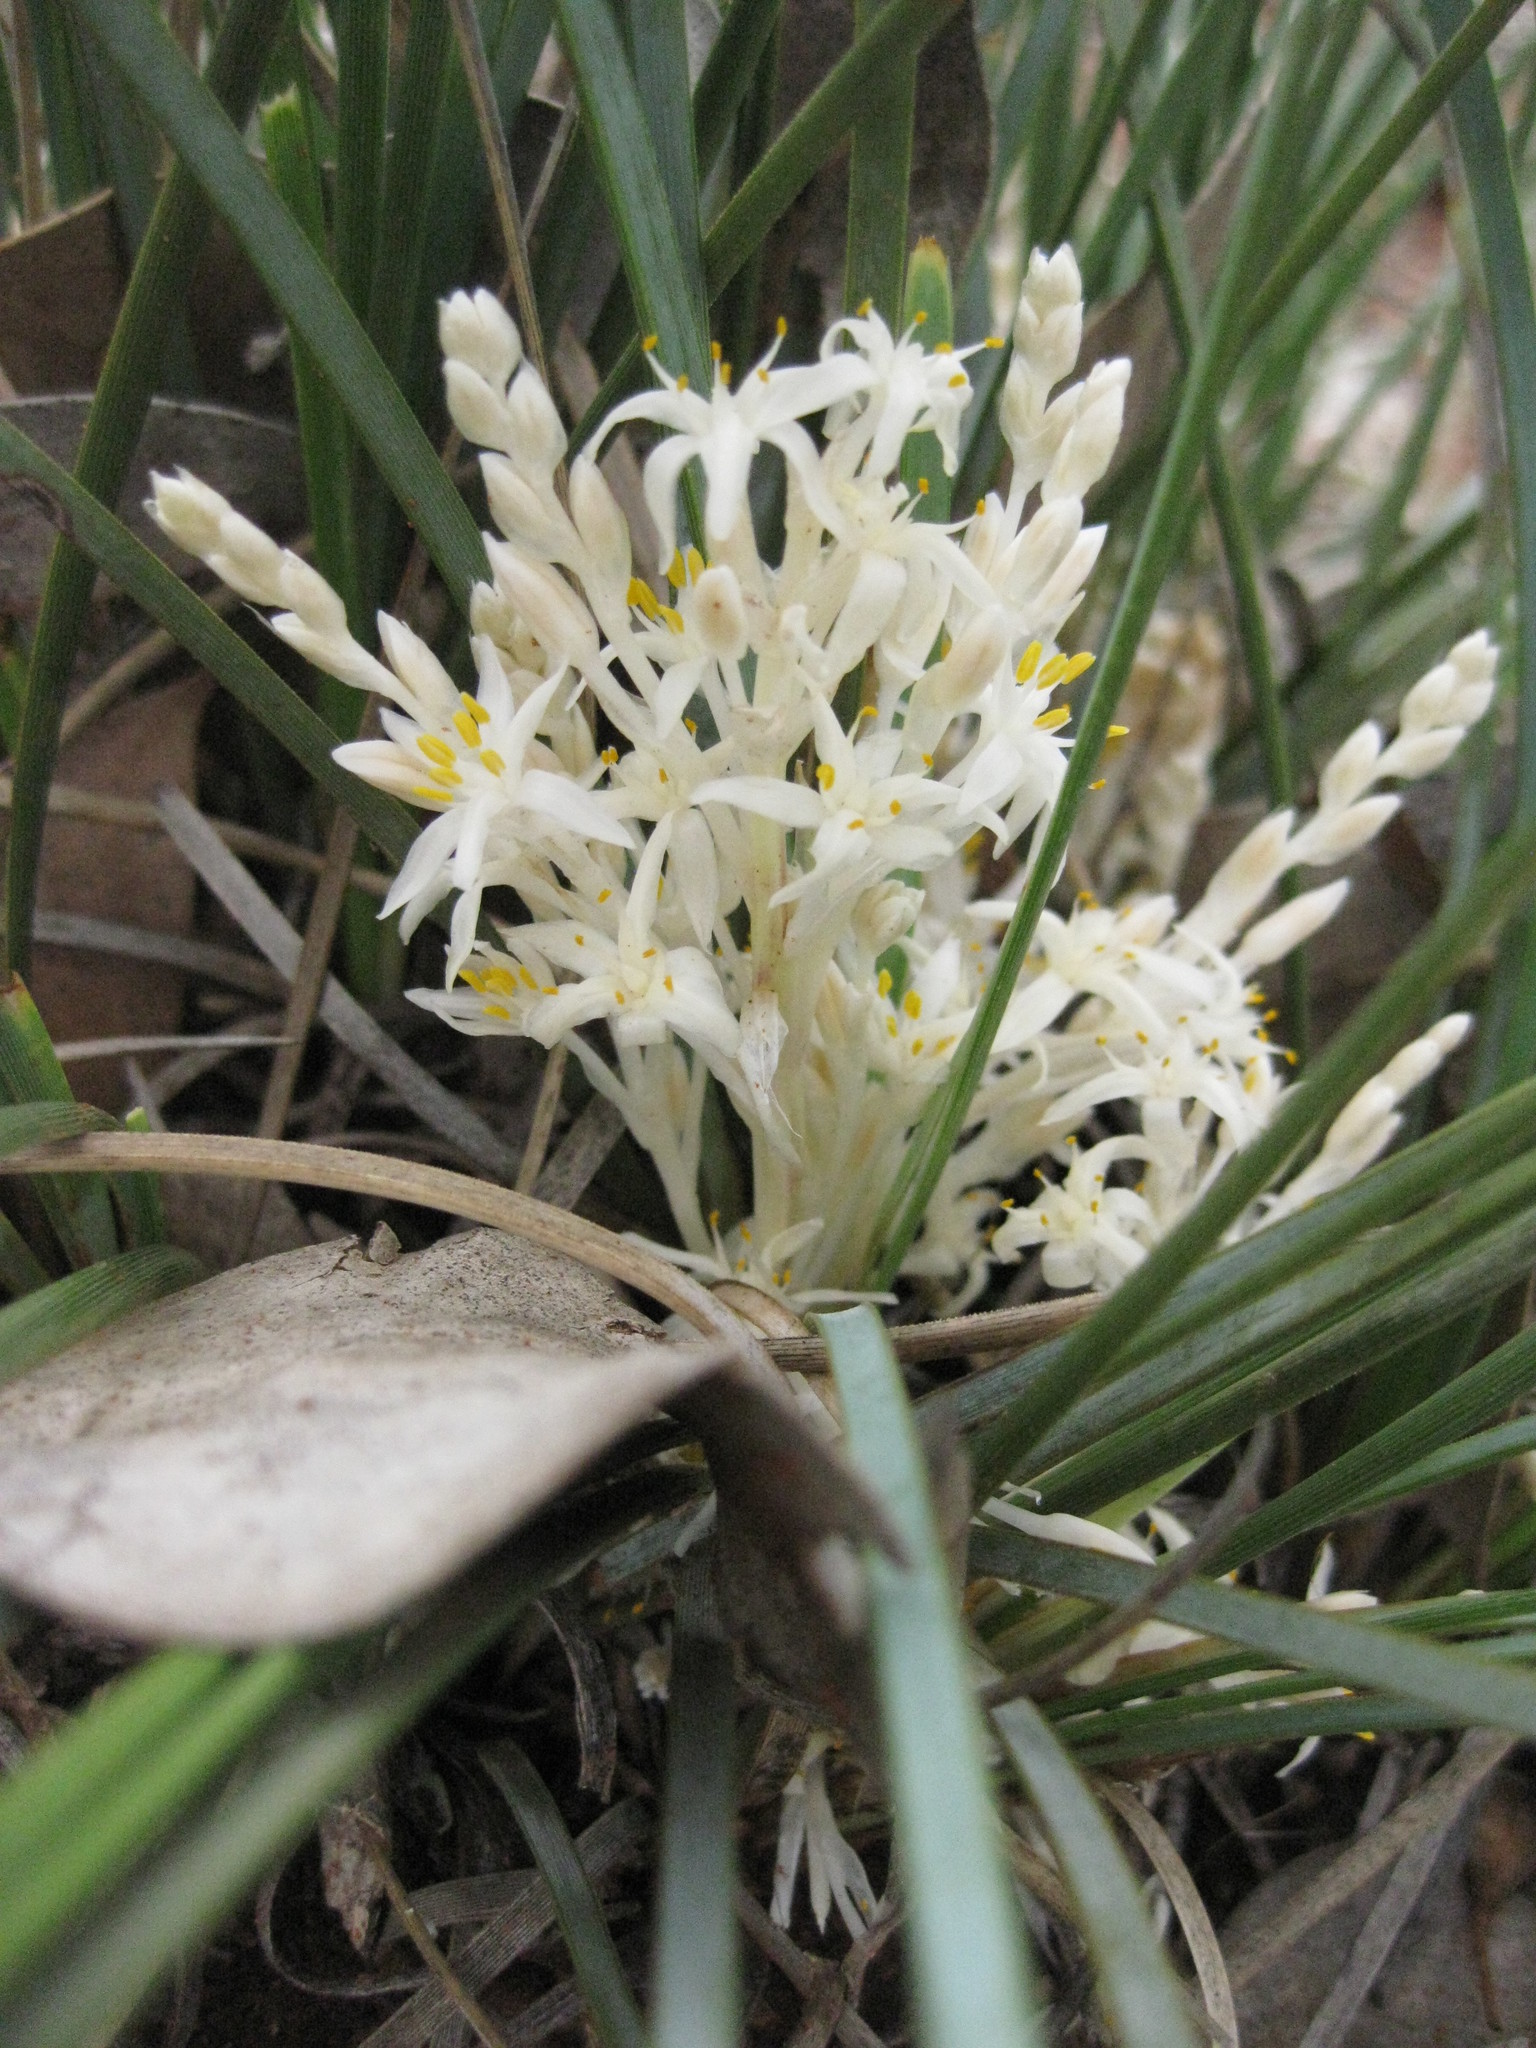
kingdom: Plantae
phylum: Tracheophyta
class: Liliopsida
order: Asparagales
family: Asparagaceae
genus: Lomandra
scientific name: Lomandra effusa
